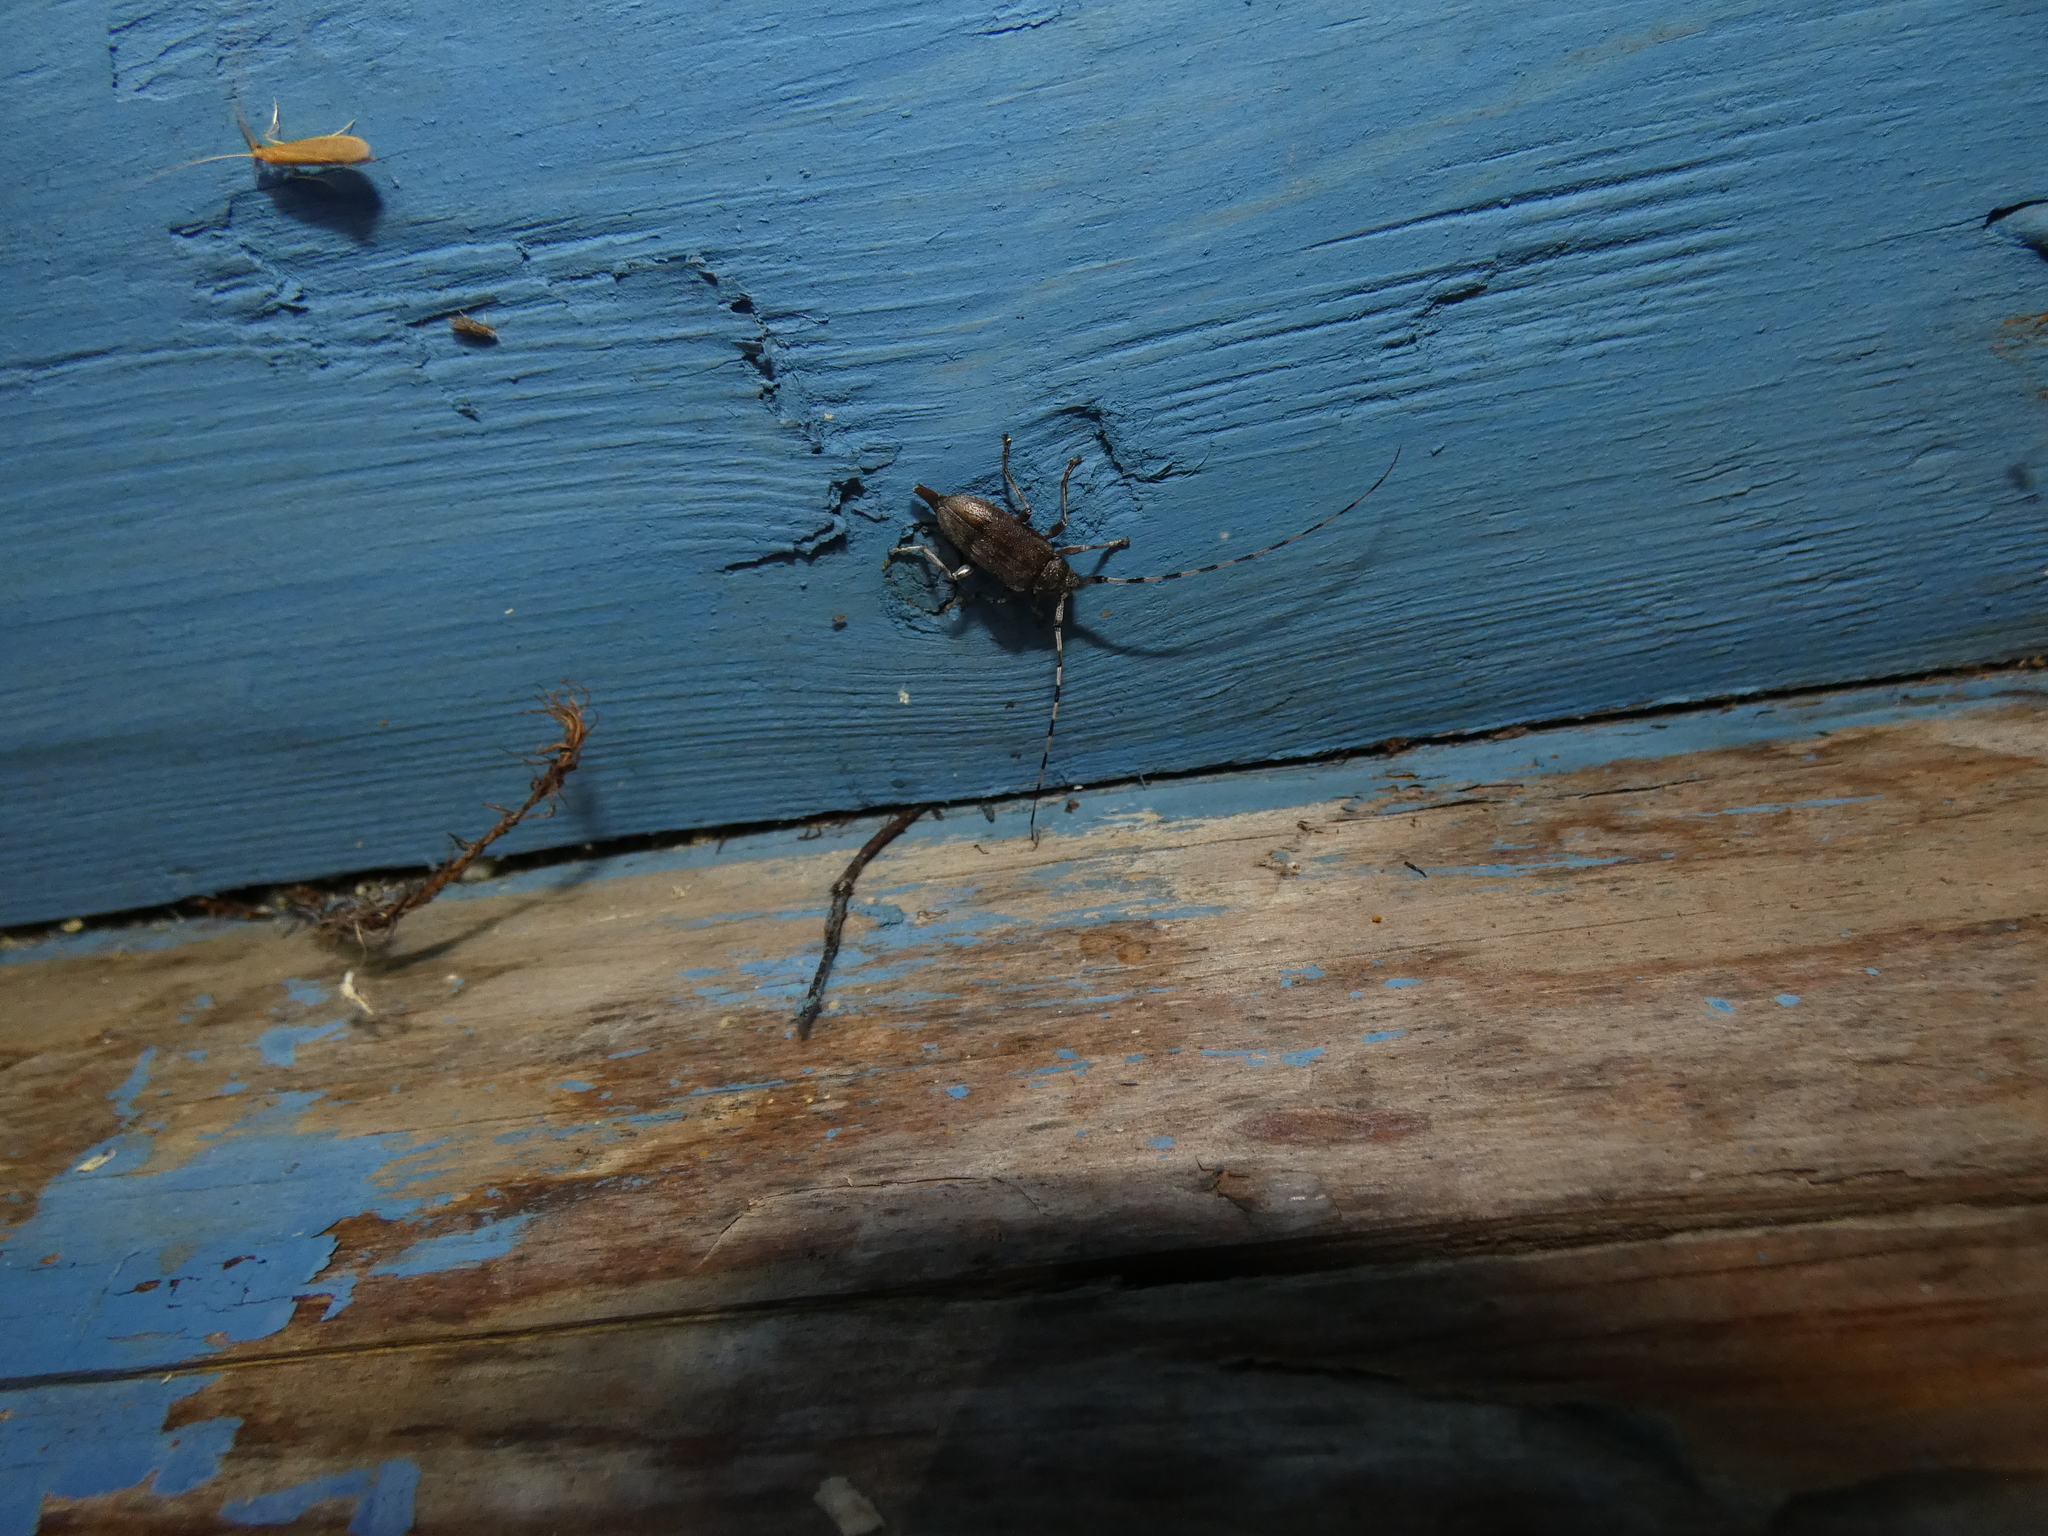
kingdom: Animalia
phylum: Arthropoda
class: Insecta
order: Coleoptera
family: Cerambycidae
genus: Acanthocinus
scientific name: Acanthocinus griseus
